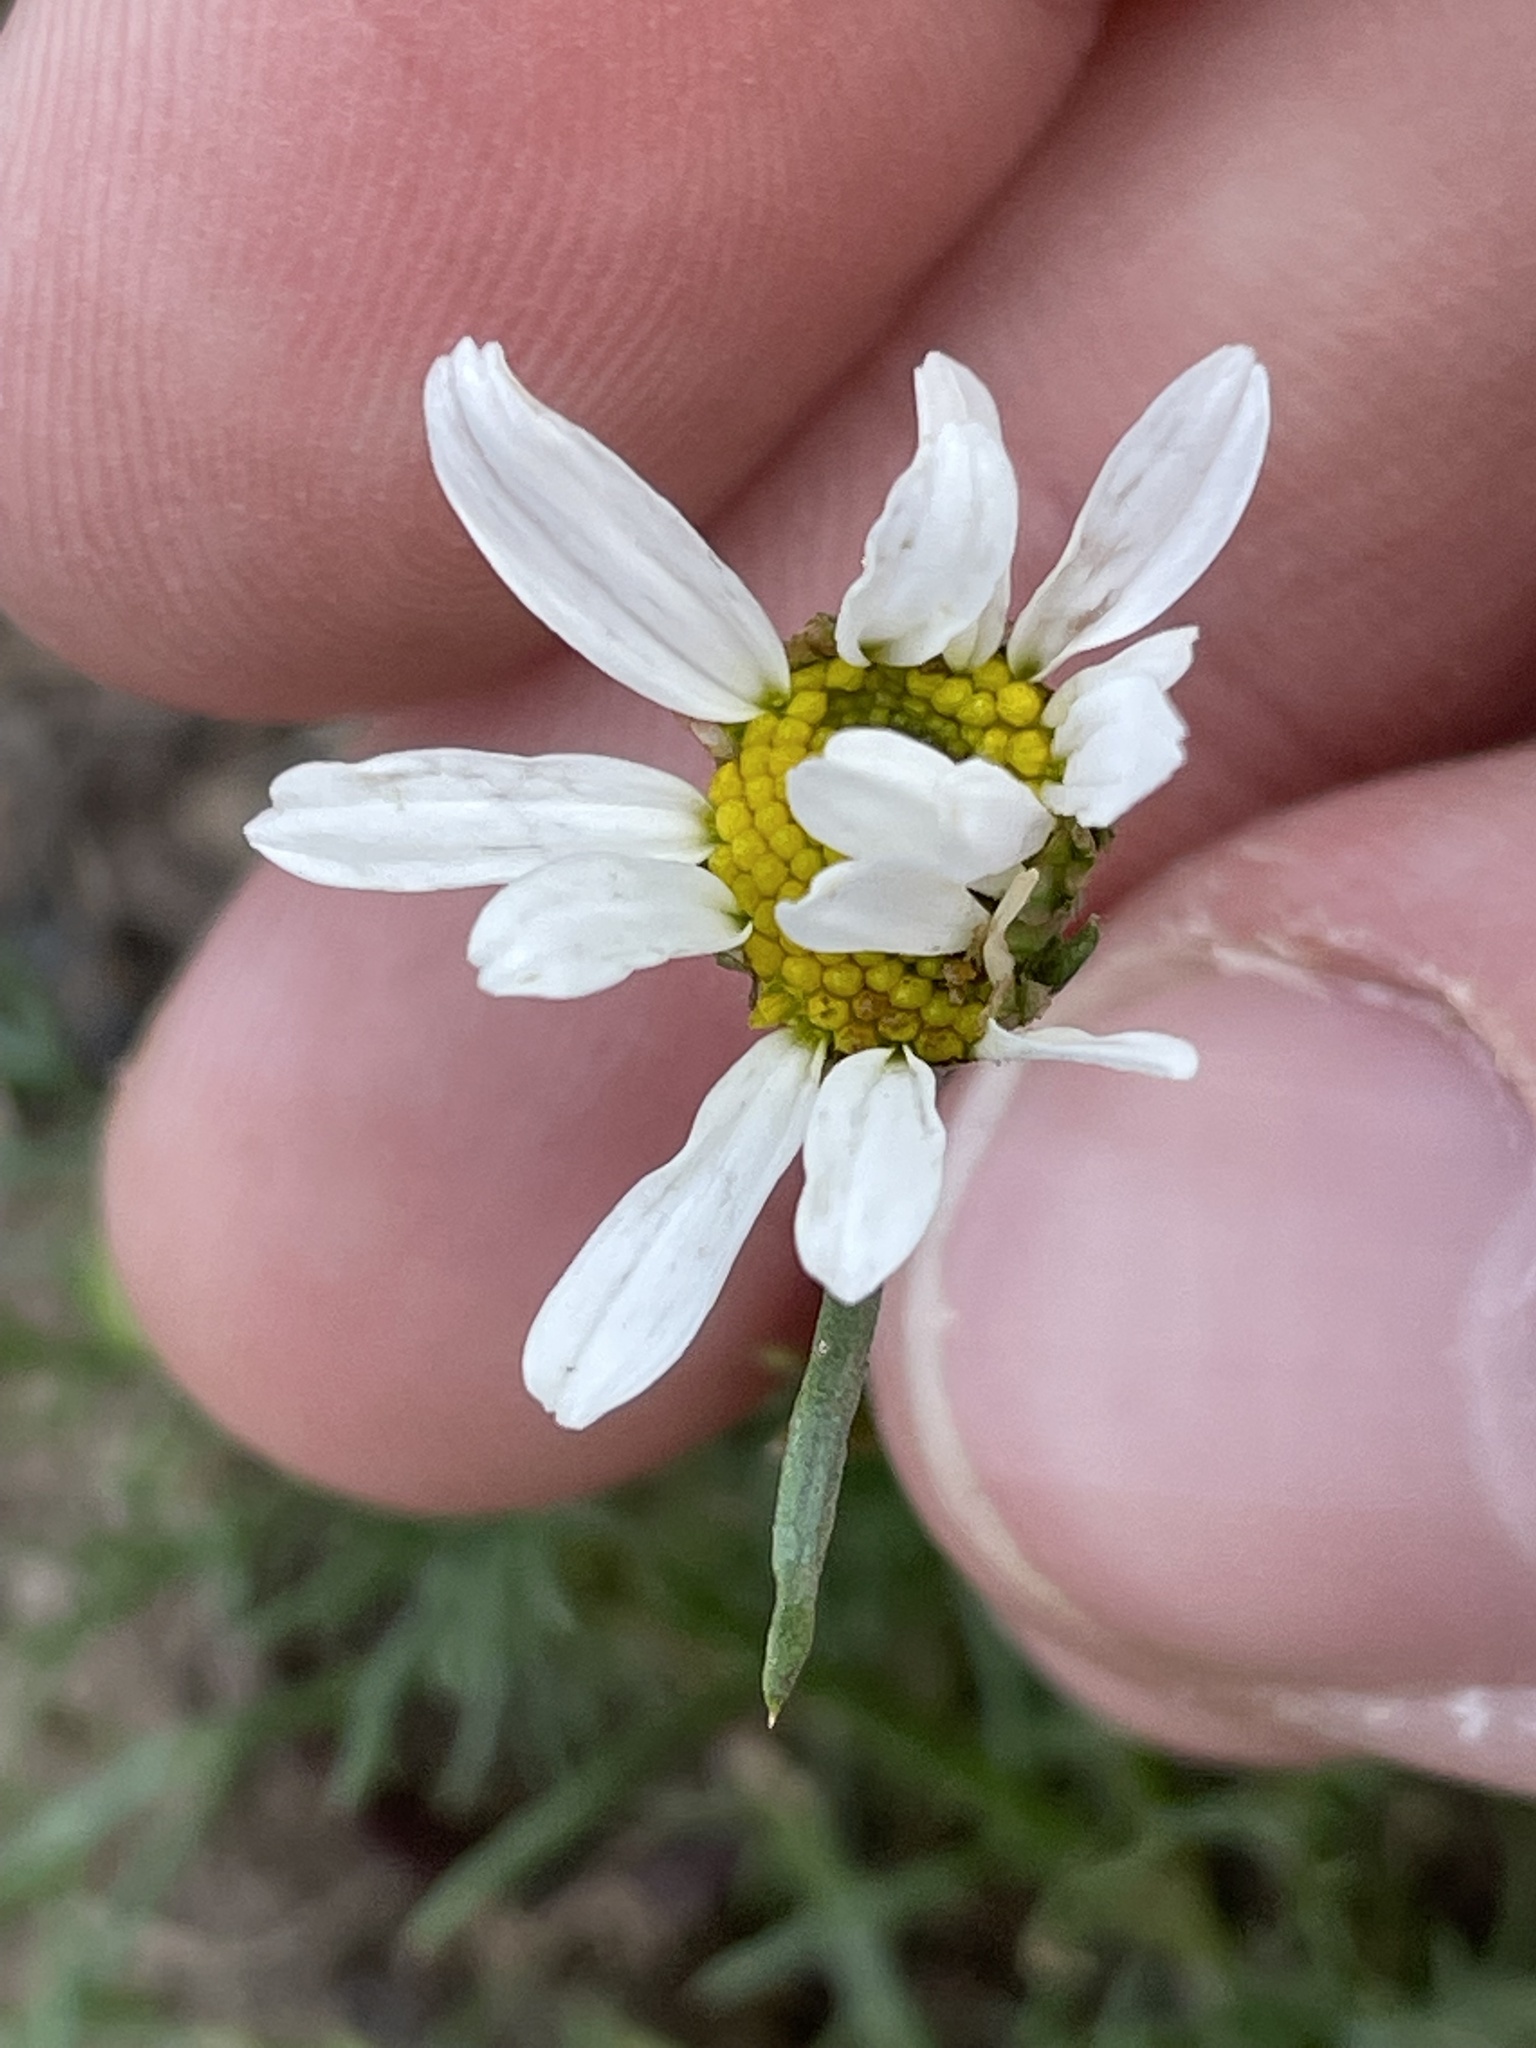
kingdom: Plantae
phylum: Tracheophyta
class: Magnoliopsida
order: Asterales
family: Asteraceae
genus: Tripleurospermum
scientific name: Tripleurospermum inodorum
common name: Scentless mayweed
